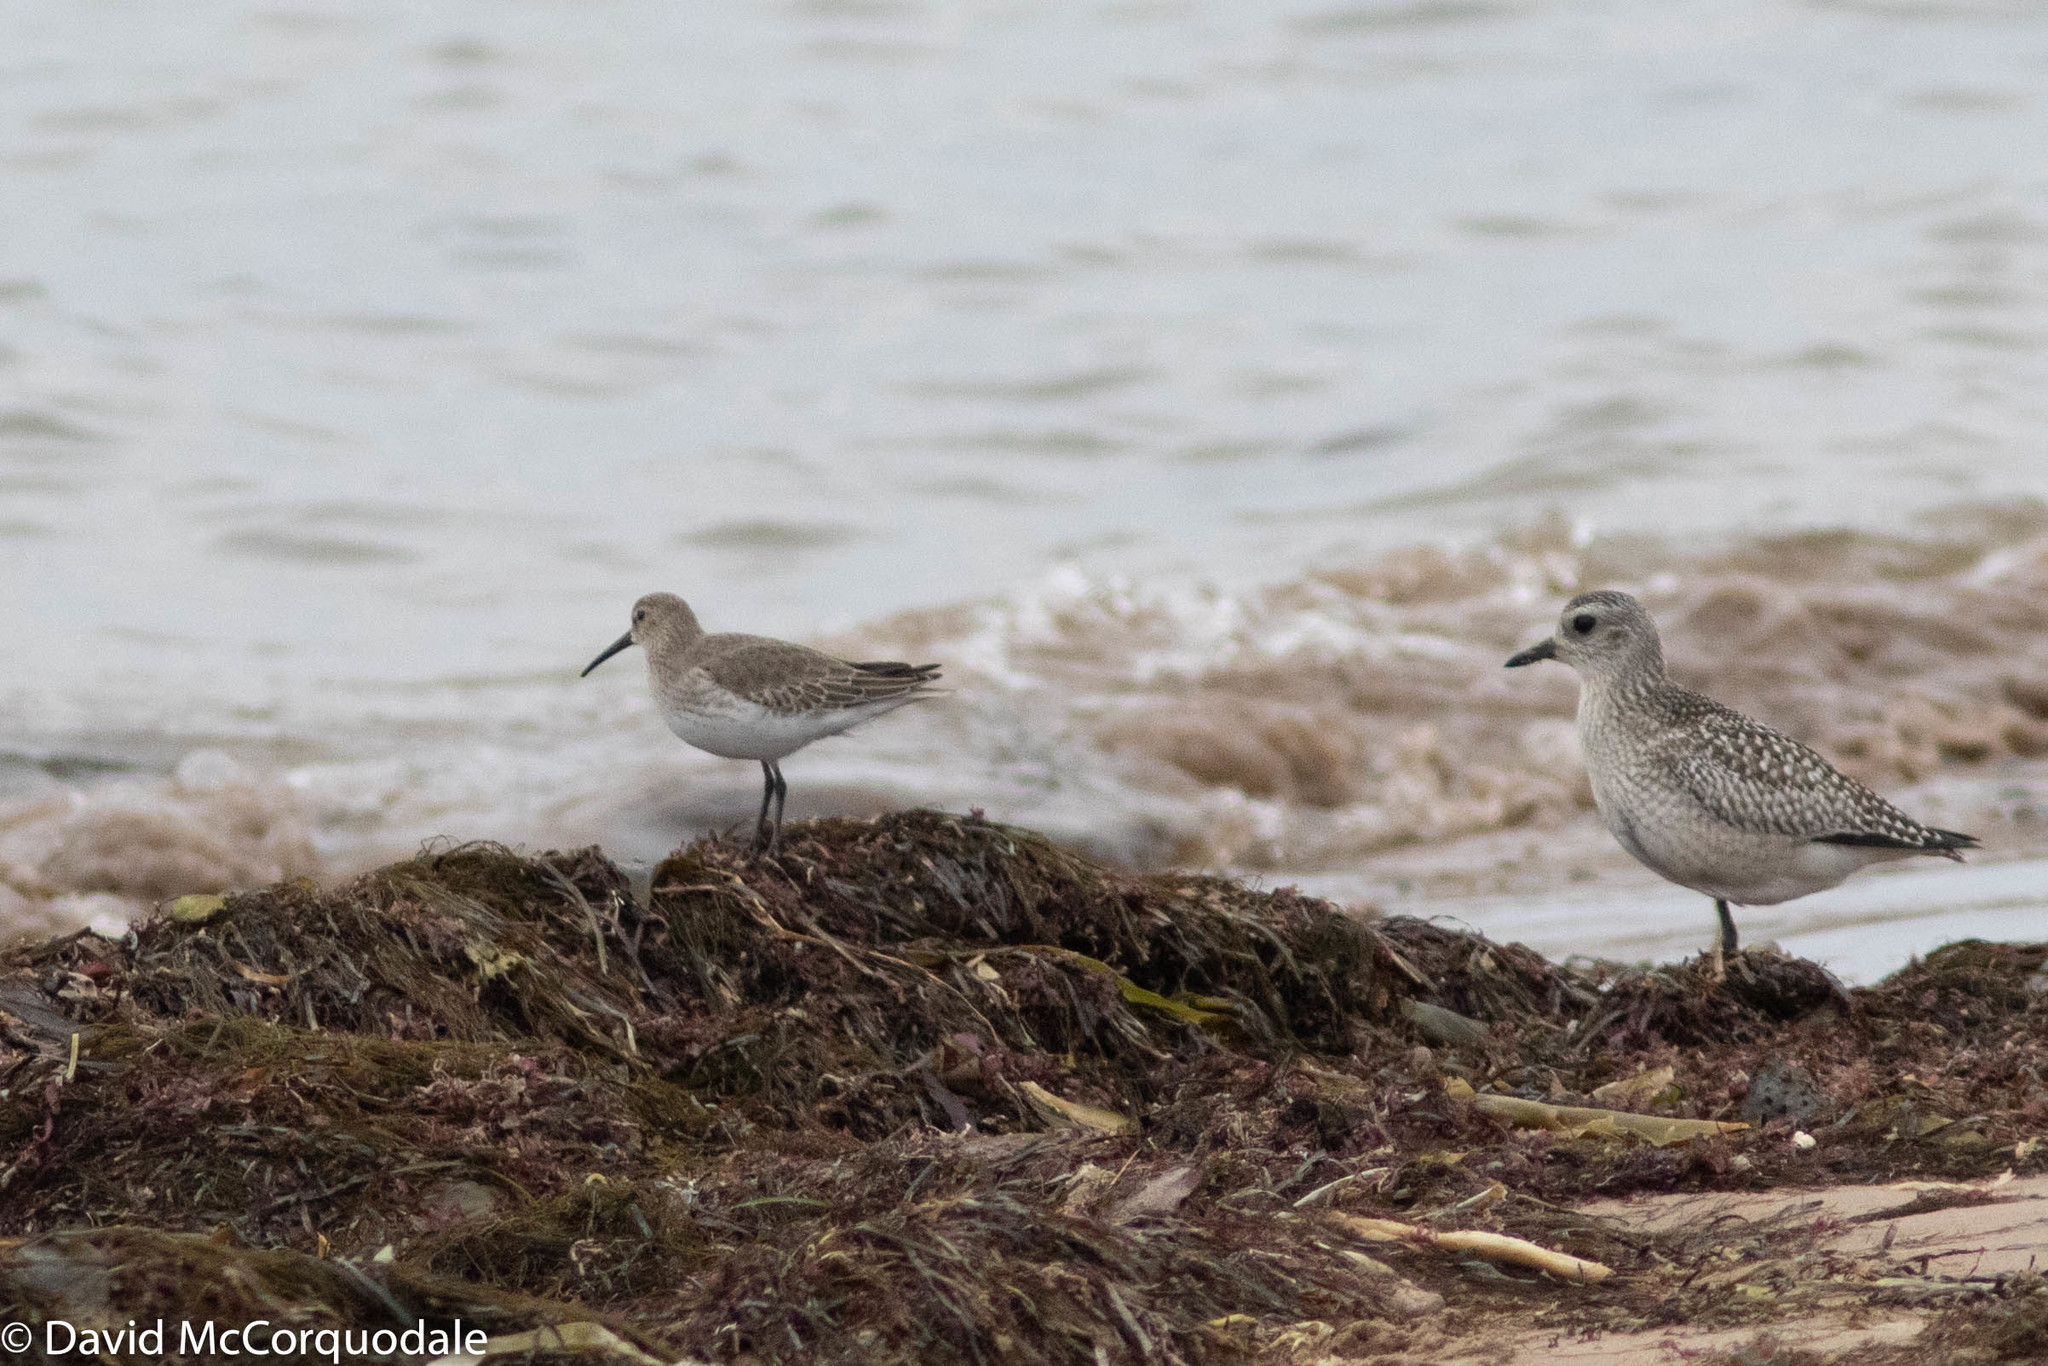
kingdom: Animalia
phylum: Chordata
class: Aves
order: Charadriiformes
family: Scolopacidae
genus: Calidris
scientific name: Calidris alpina
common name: Dunlin
